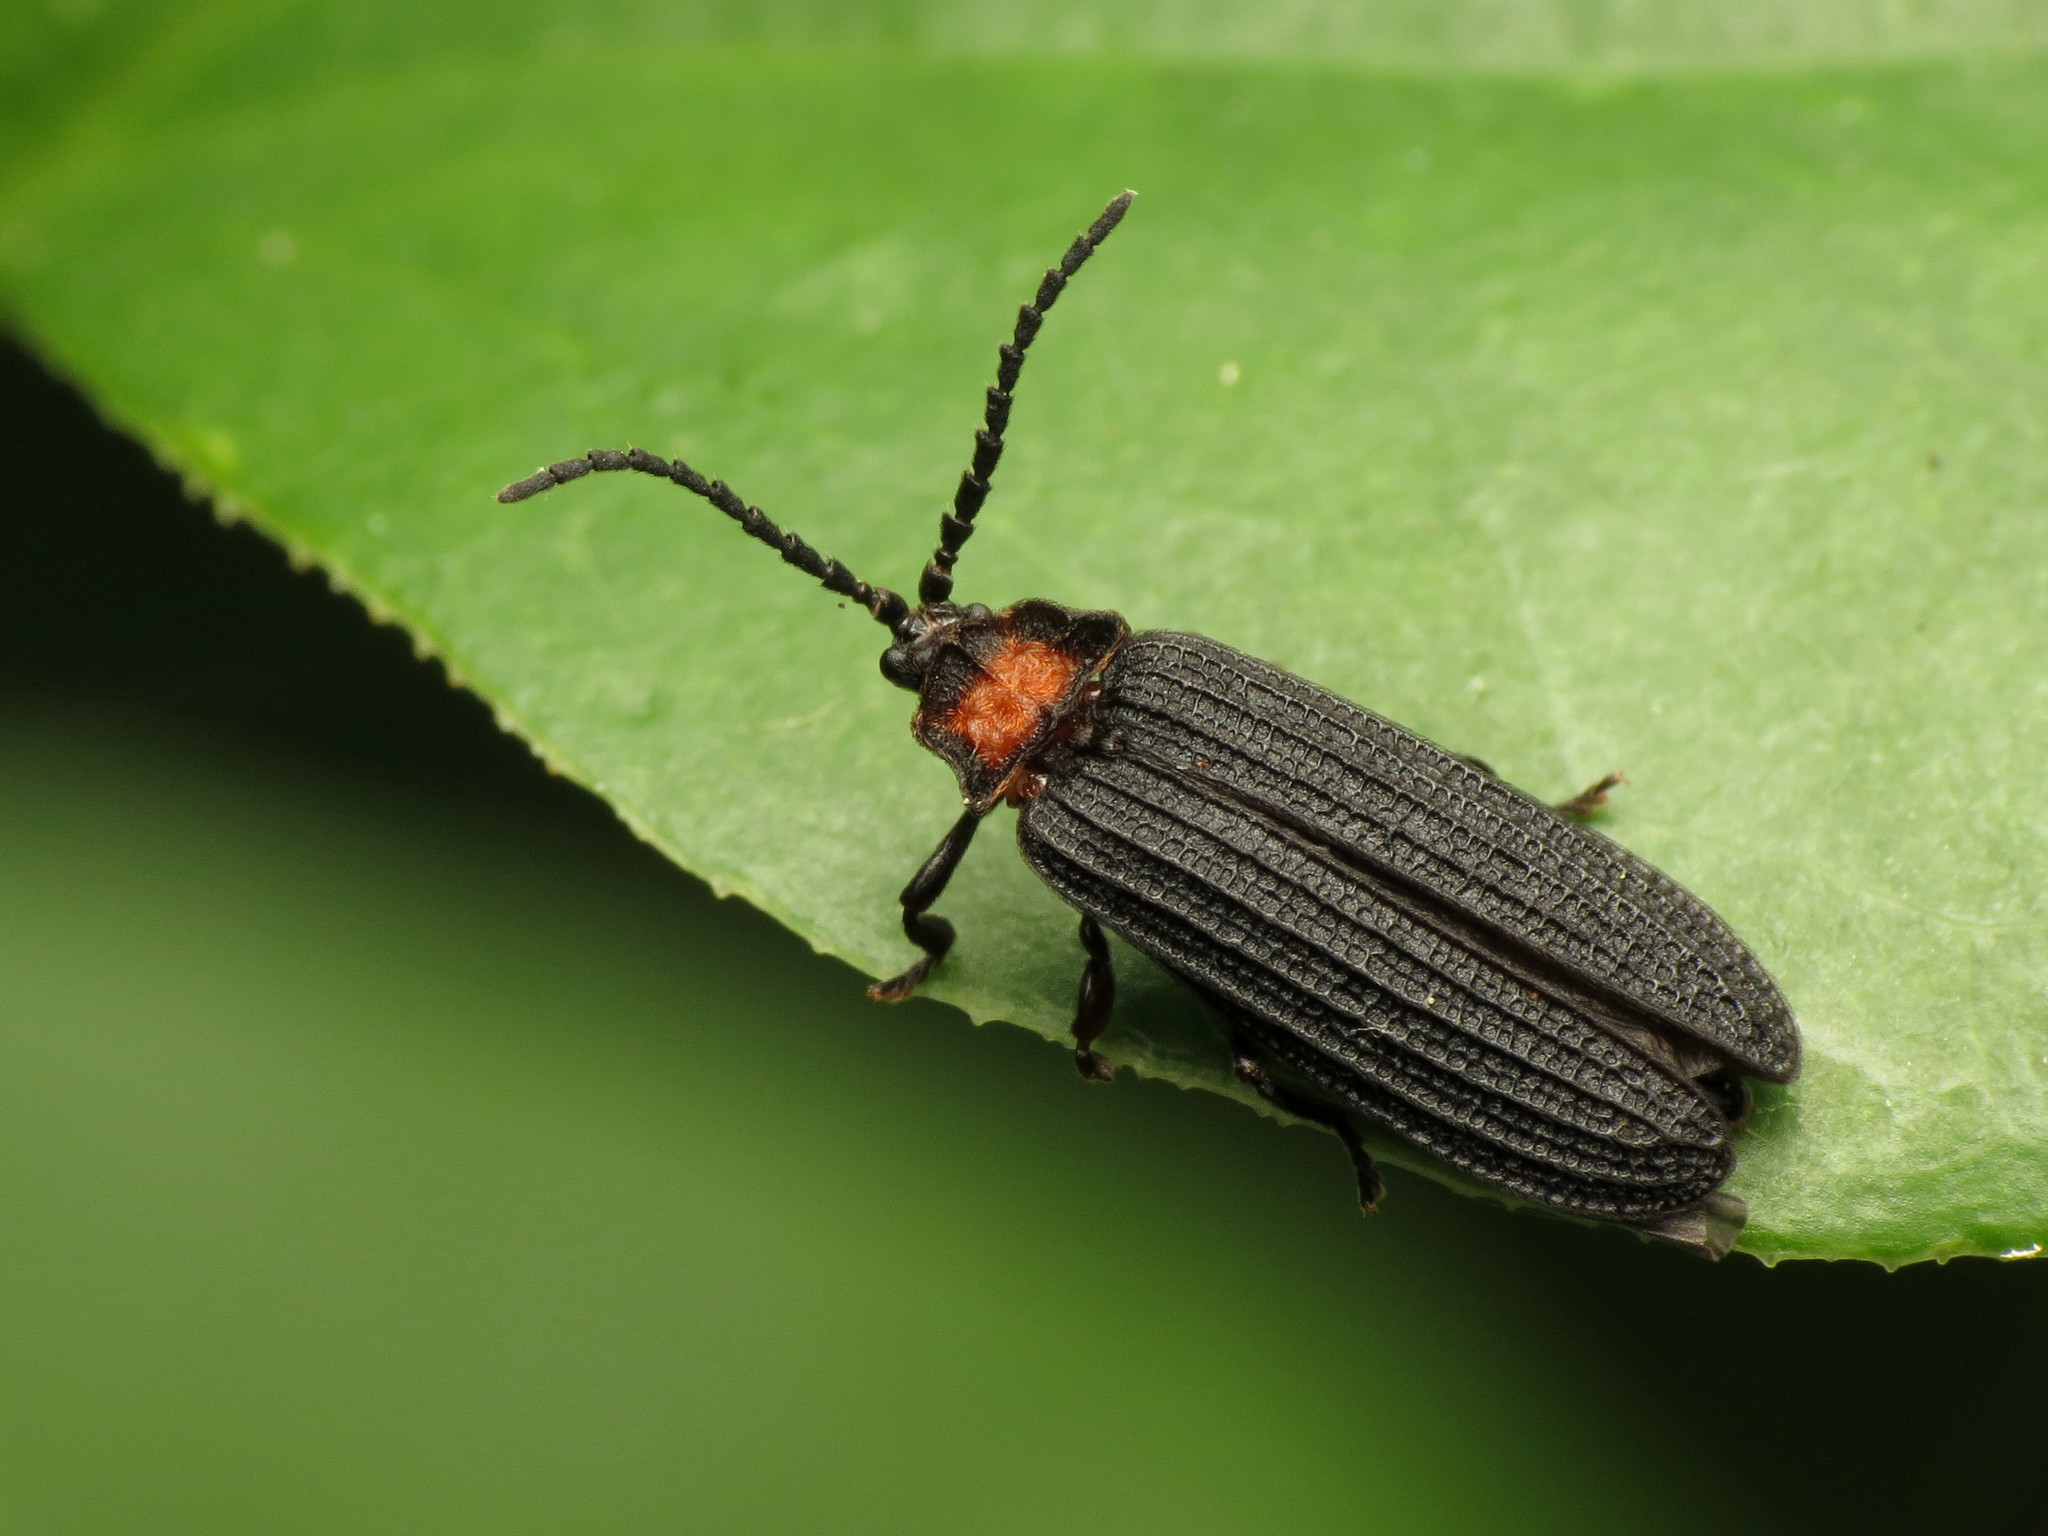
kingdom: Animalia
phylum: Arthropoda
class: Insecta
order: Coleoptera
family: Lycidae
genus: Lopheros
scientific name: Lopheros fraternus
